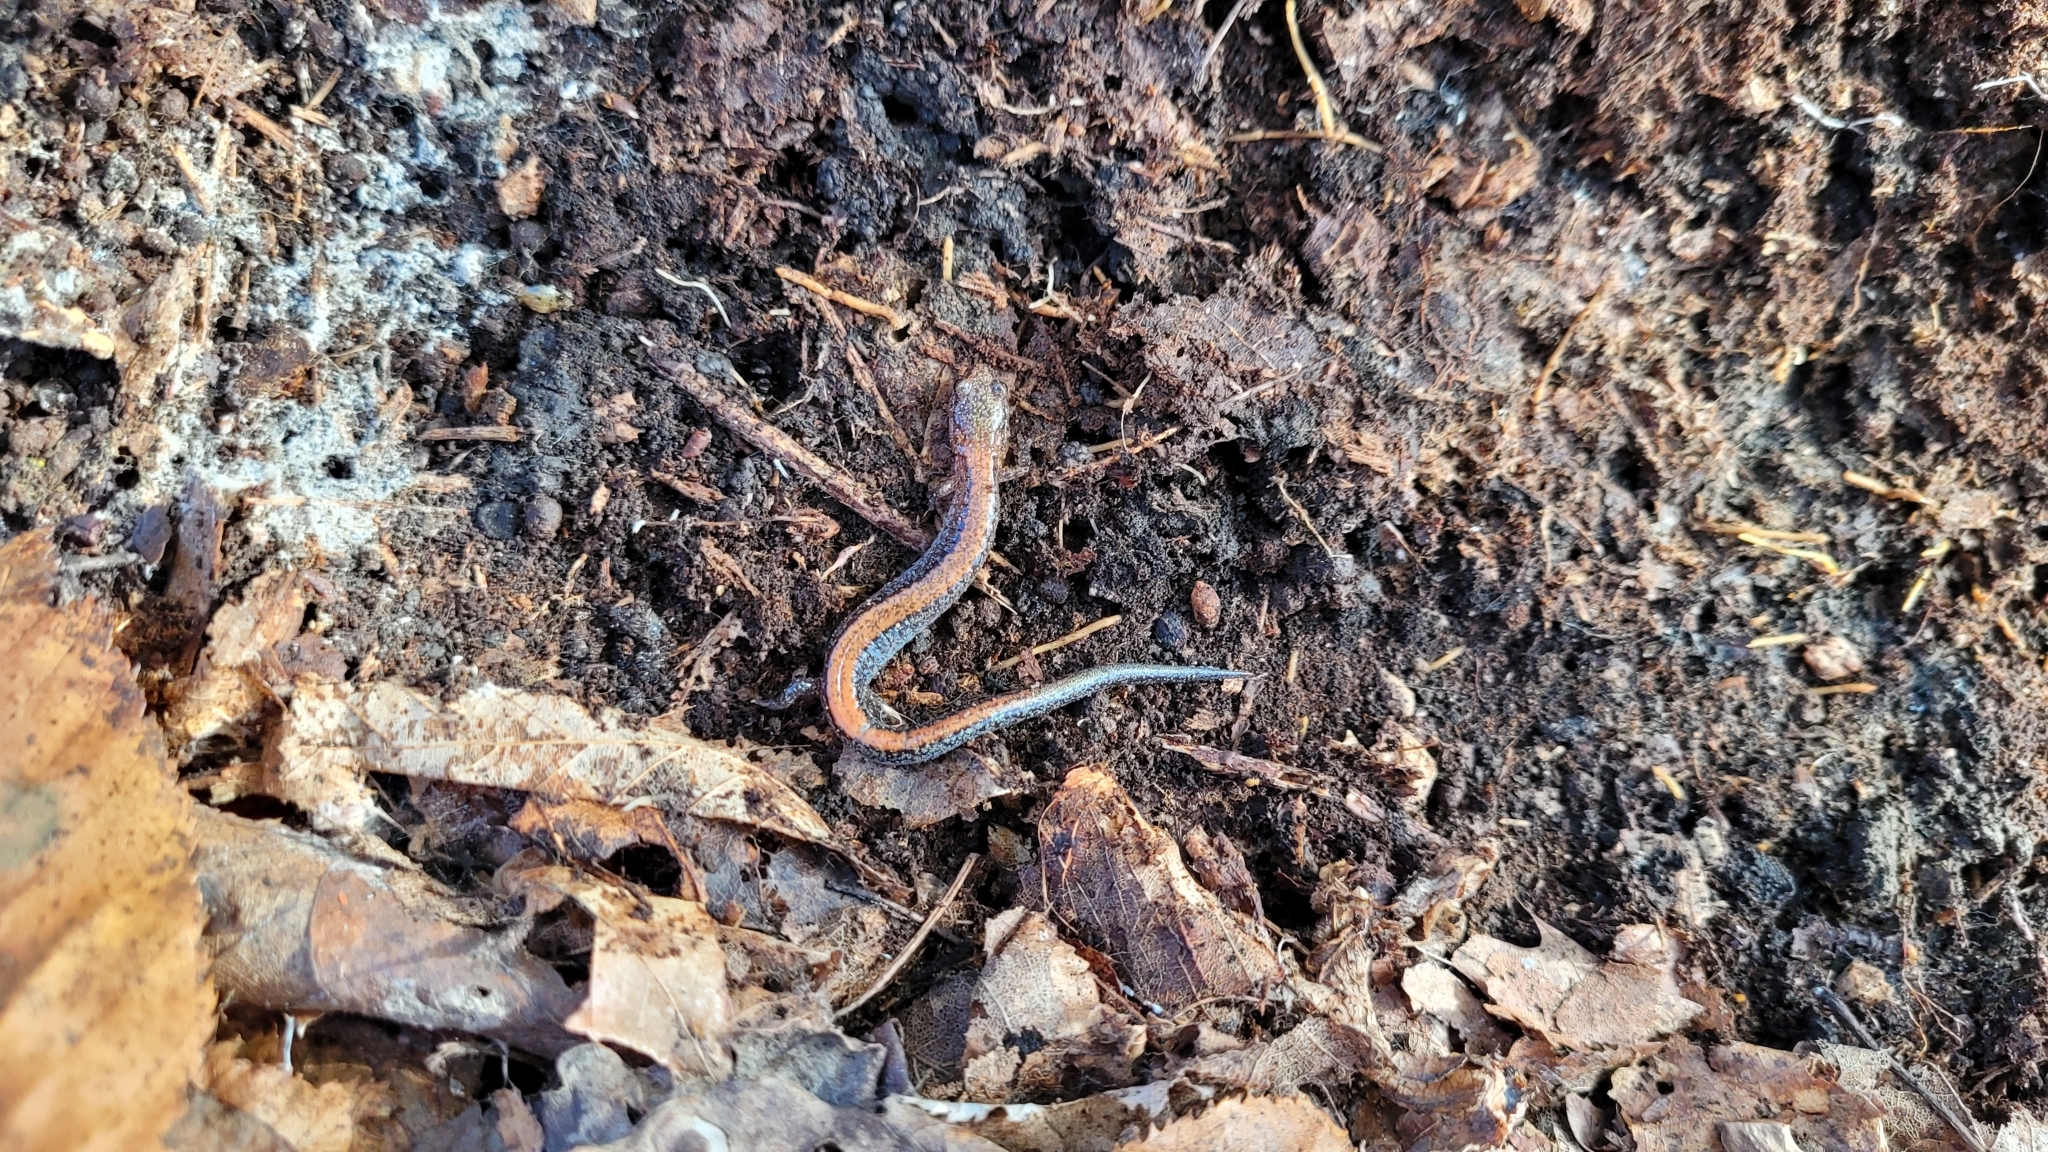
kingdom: Animalia
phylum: Chordata
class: Amphibia
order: Caudata
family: Plethodontidae
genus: Plethodon
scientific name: Plethodon cinereus
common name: Redback salamander
